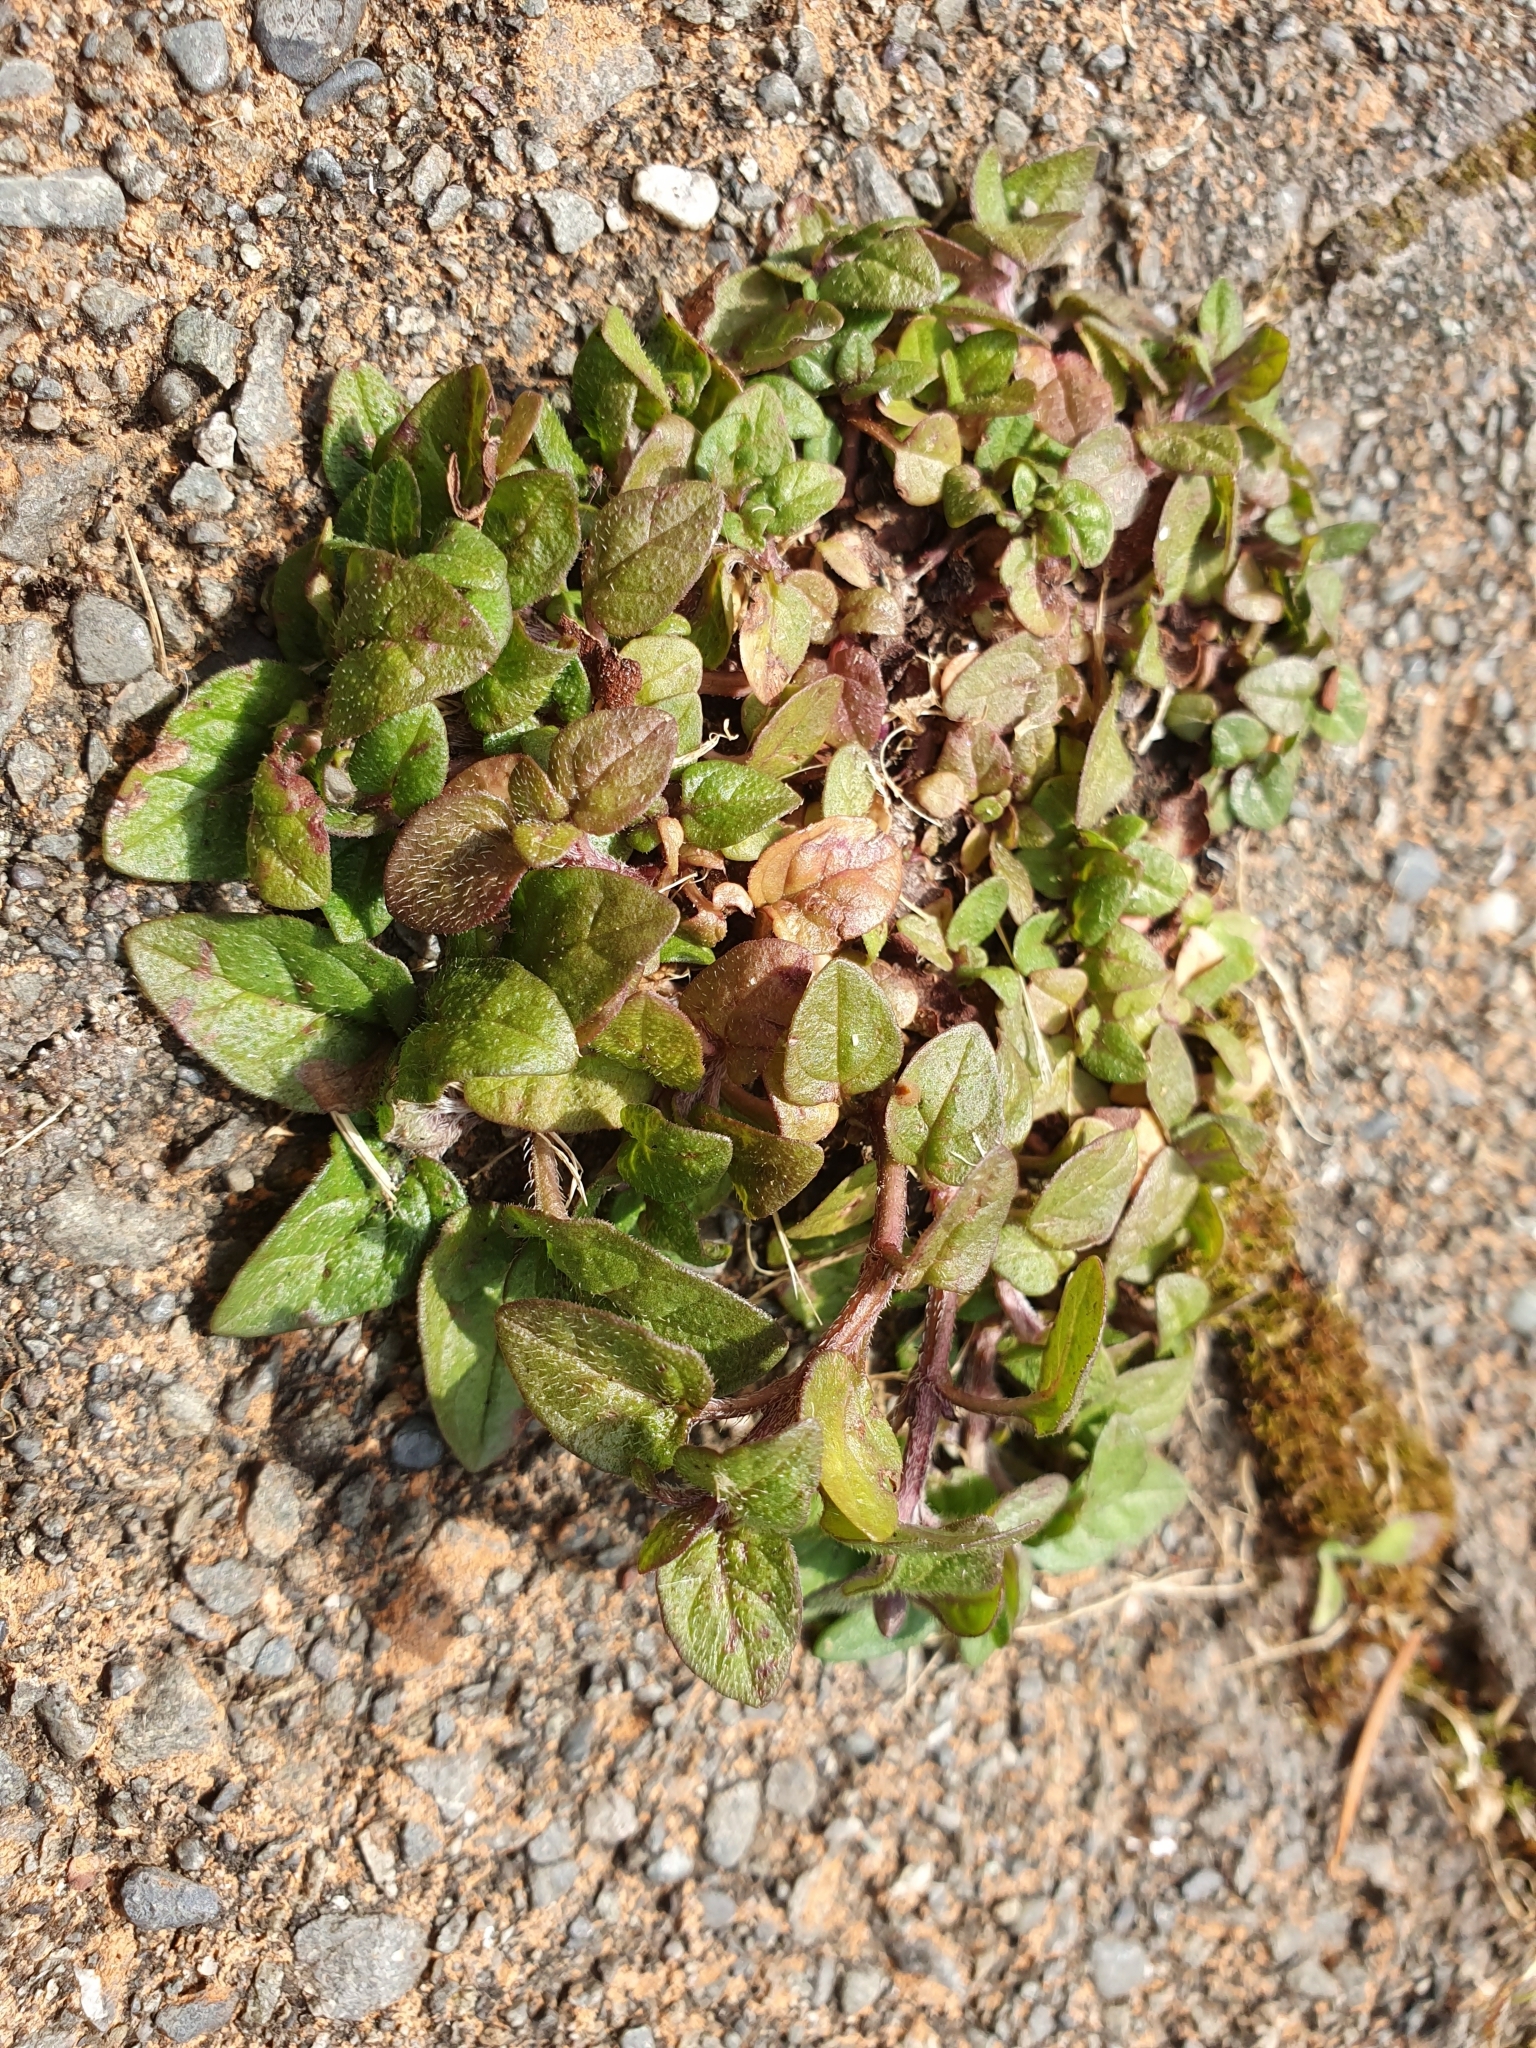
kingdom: Plantae
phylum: Tracheophyta
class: Magnoliopsida
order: Lamiales
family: Lamiaceae
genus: Prunella
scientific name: Prunella vulgaris
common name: Heal-all
